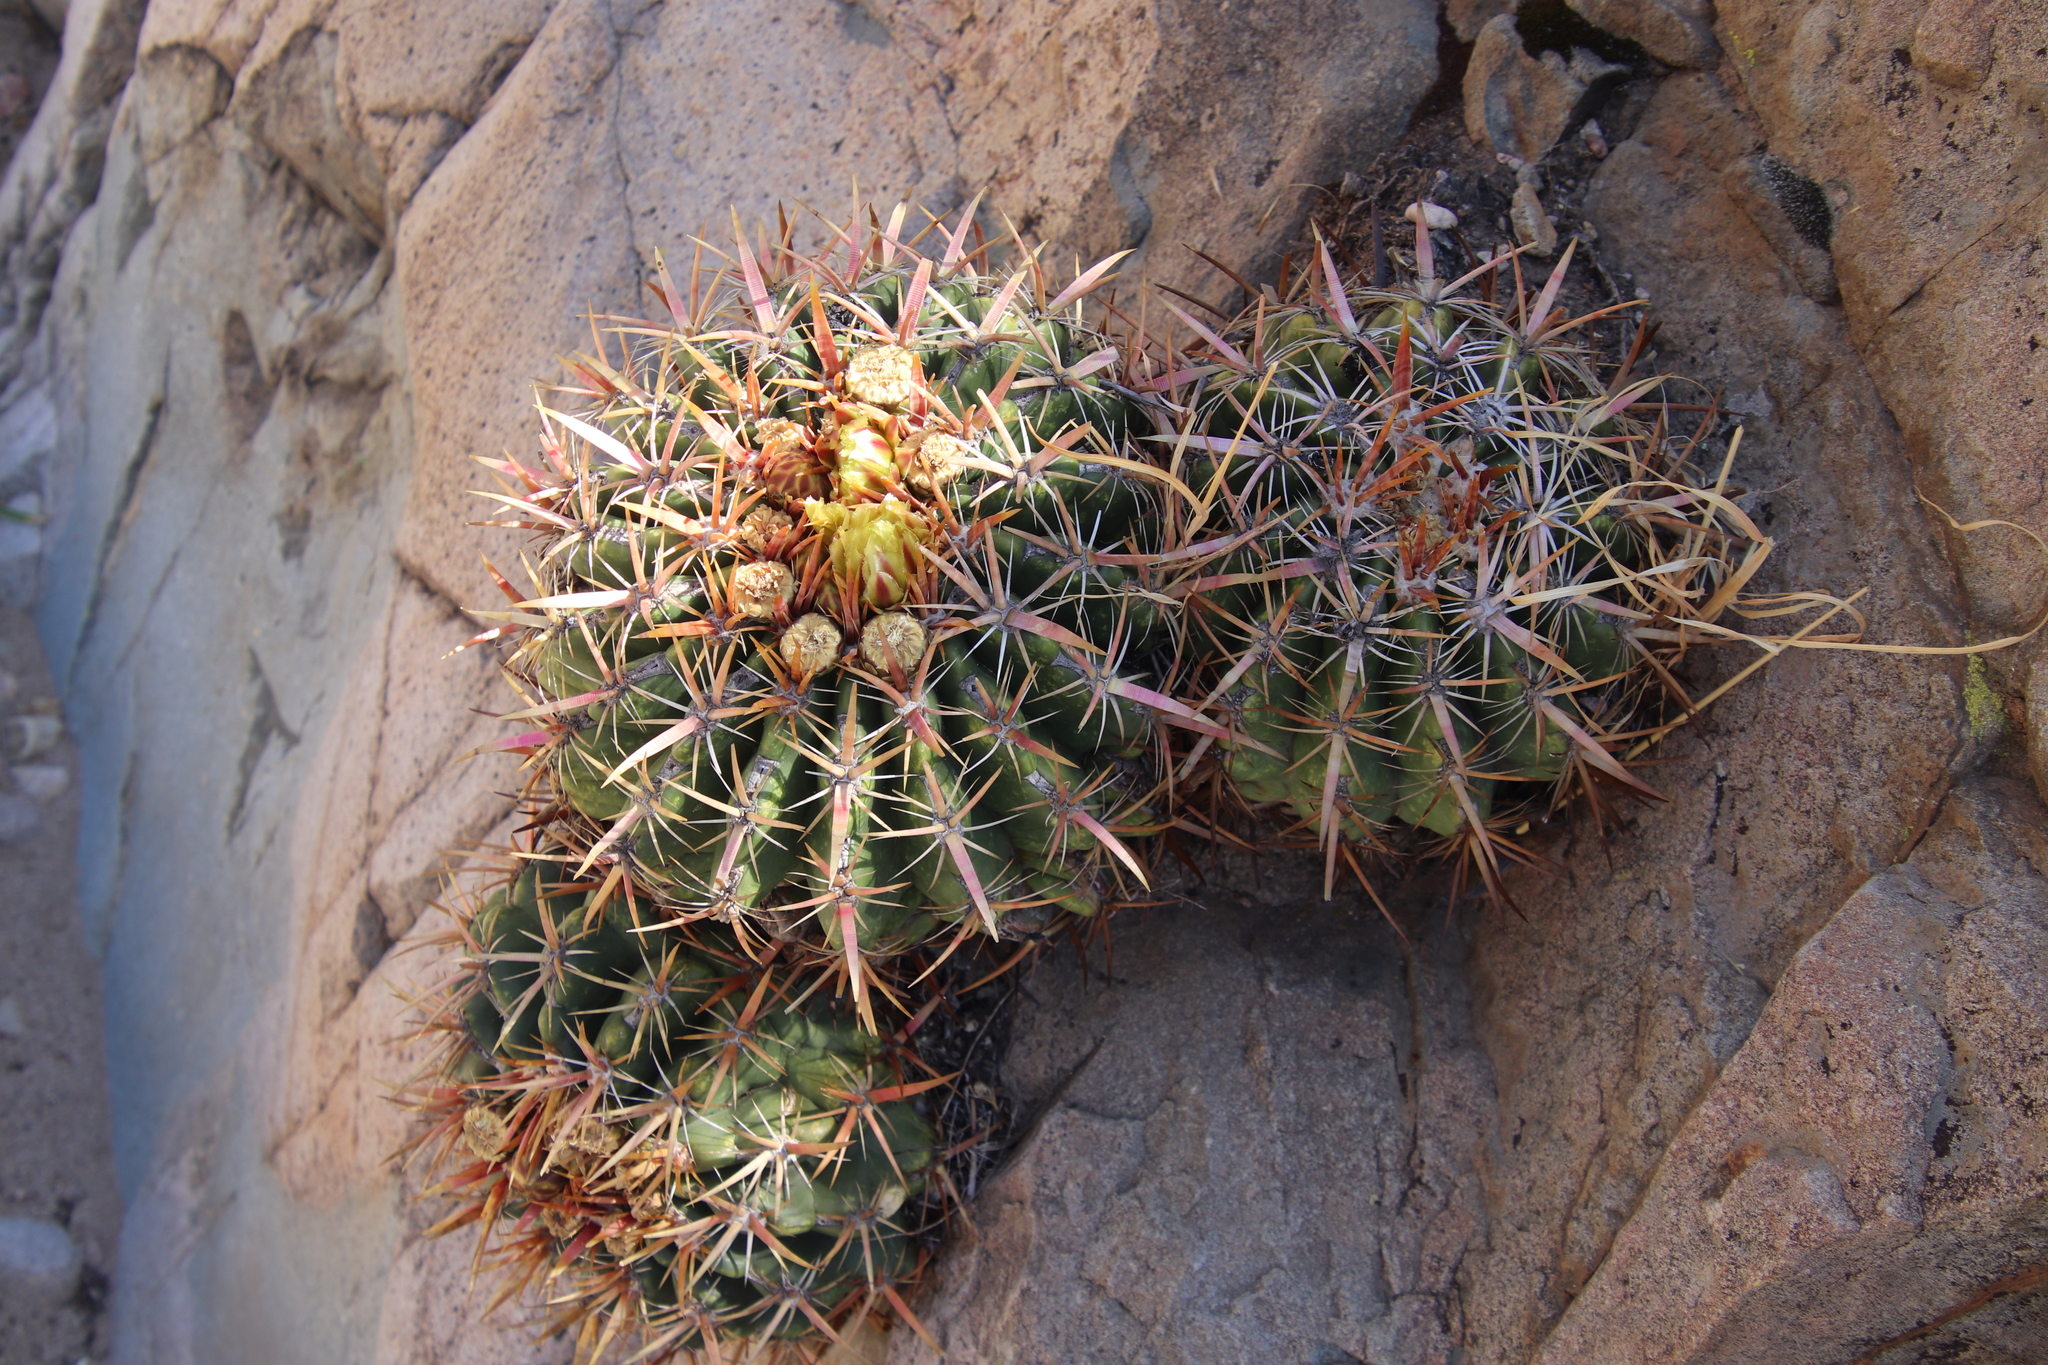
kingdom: Plantae
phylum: Tracheophyta
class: Magnoliopsida
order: Caryophyllales
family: Cactaceae
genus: Ferocactus
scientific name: Ferocactus viridescens
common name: San diego barrel cactus
